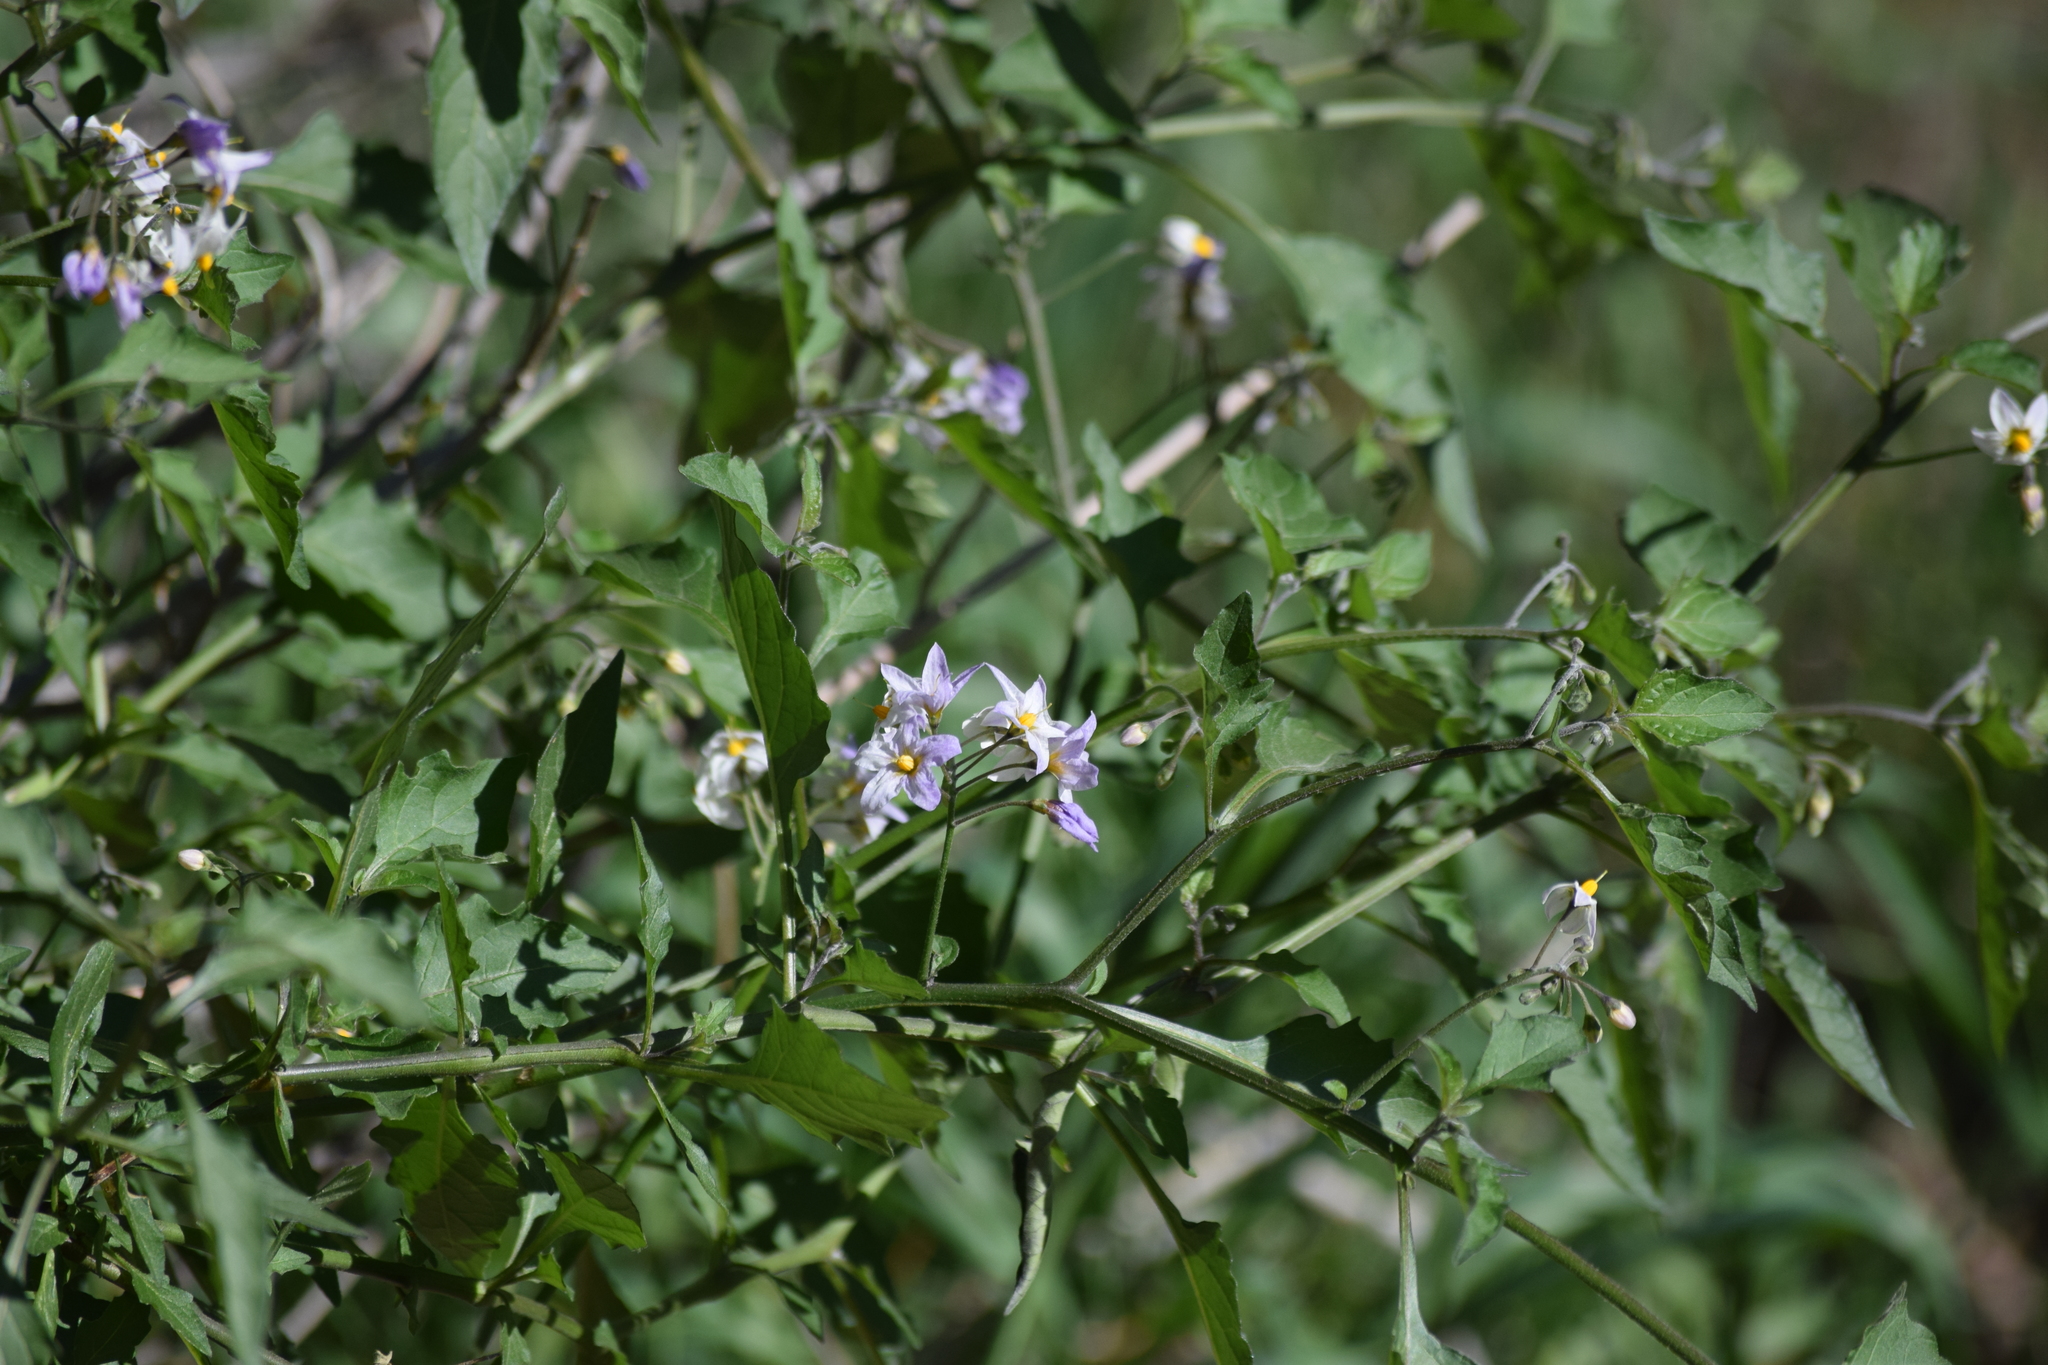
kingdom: Plantae
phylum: Tracheophyta
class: Magnoliopsida
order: Solanales
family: Solanaceae
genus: Solanum
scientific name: Solanum douglasii
